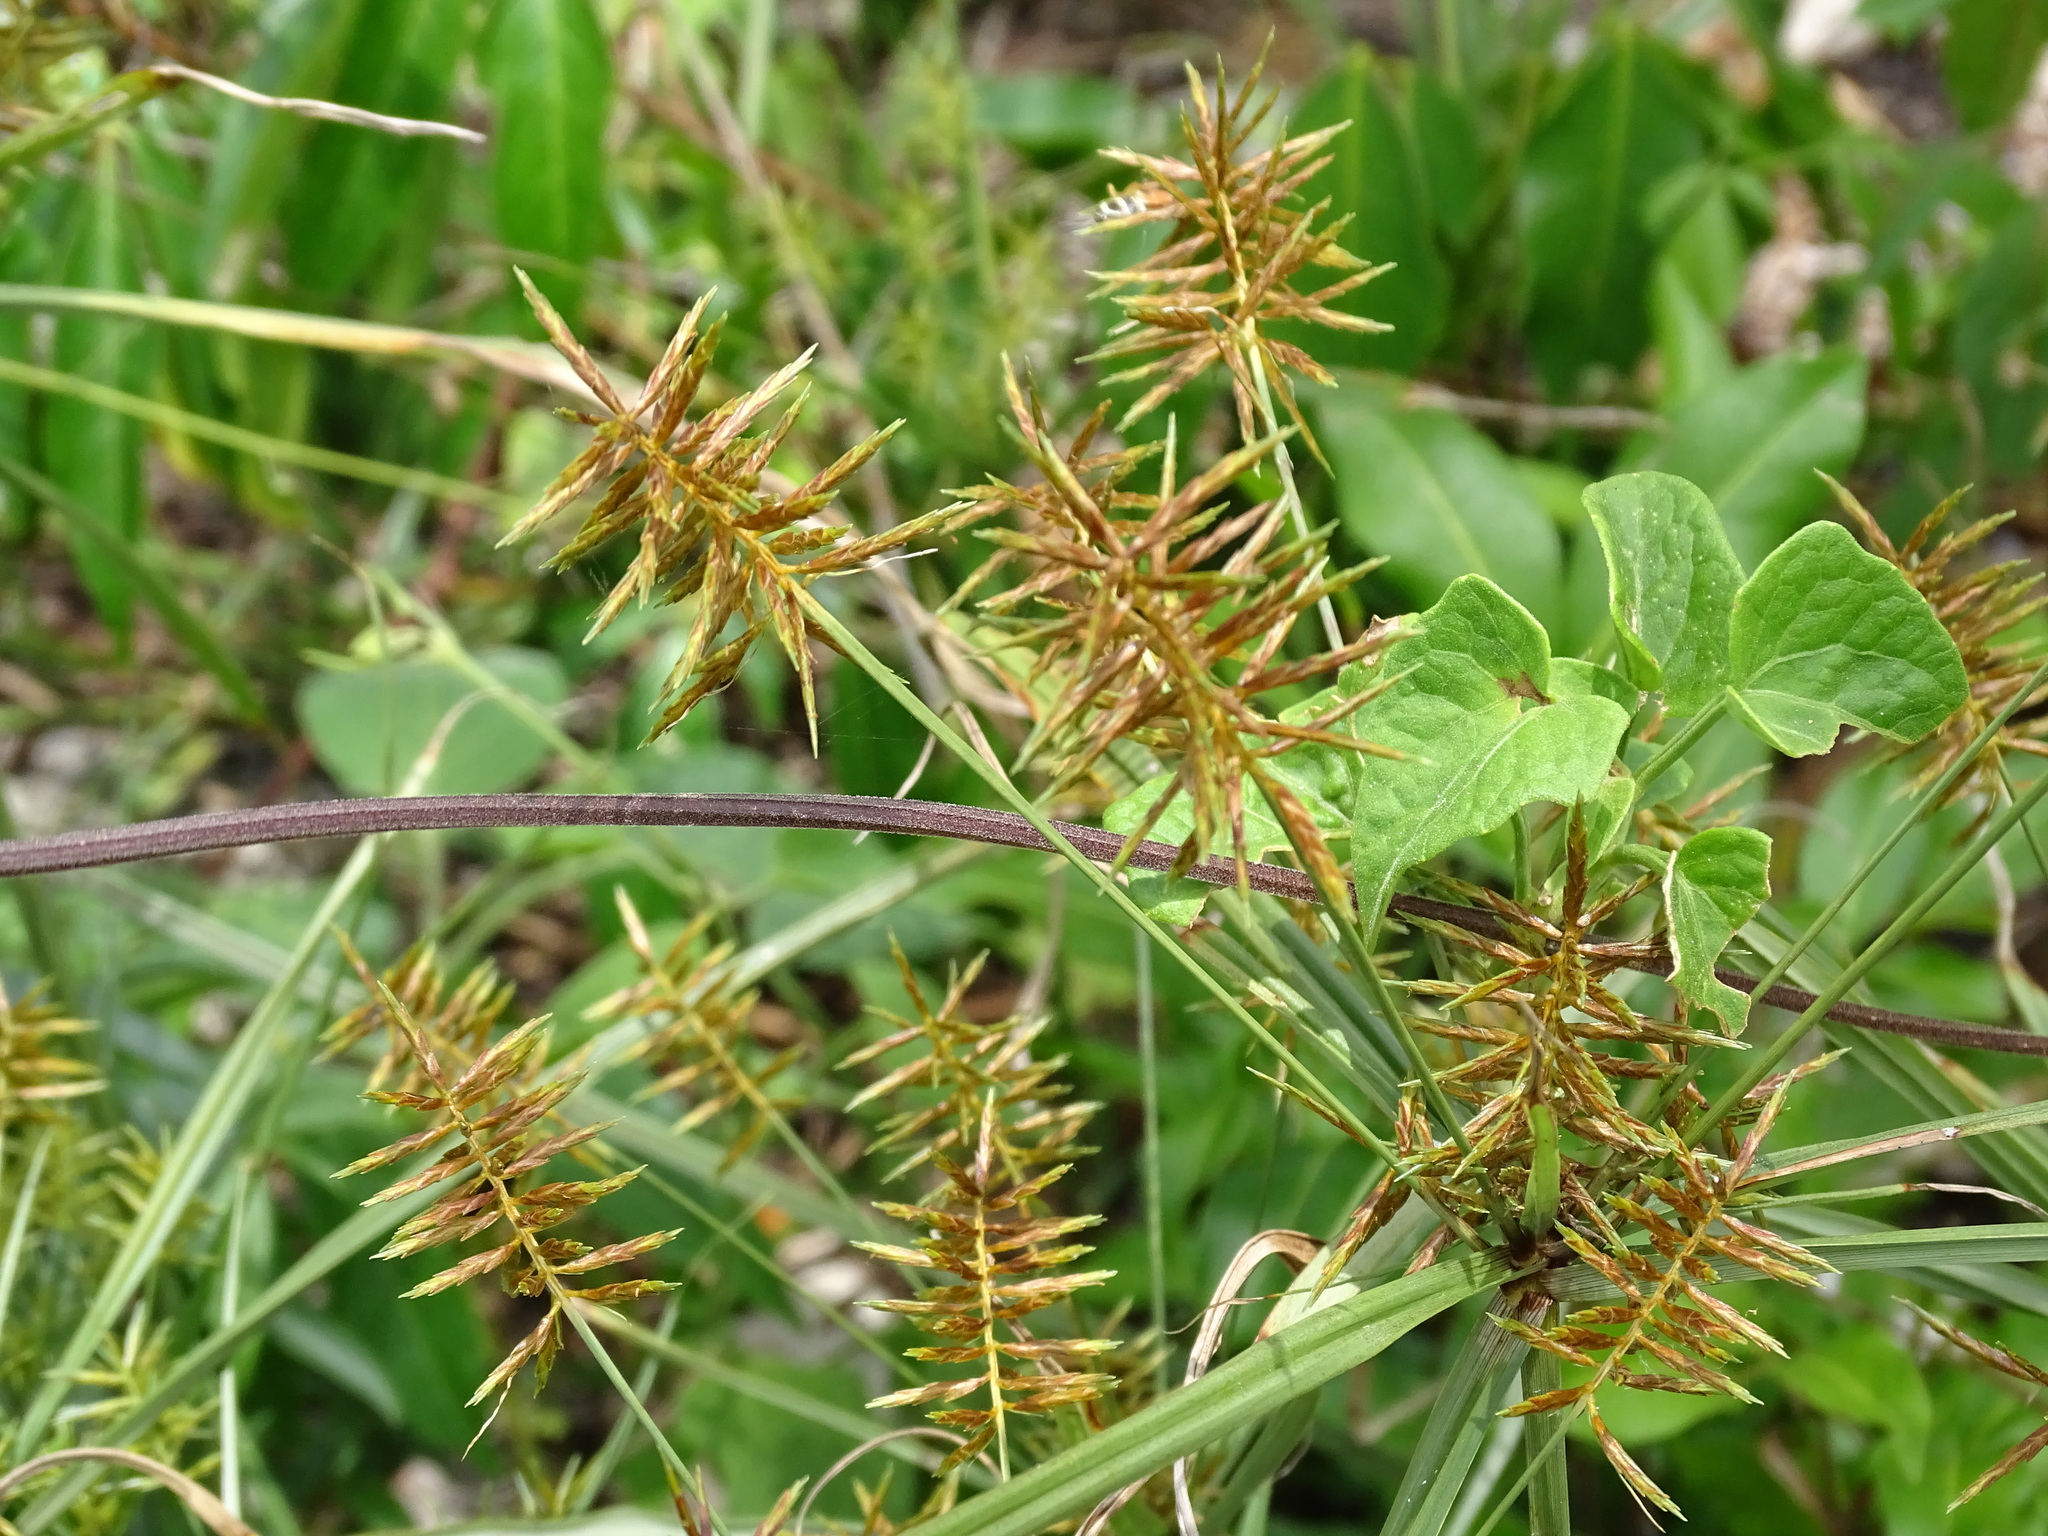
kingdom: Plantae
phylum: Tracheophyta
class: Liliopsida
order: Poales
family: Cyperaceae
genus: Cyperus
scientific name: Cyperus odoratus
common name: Fragrant flatsedge
